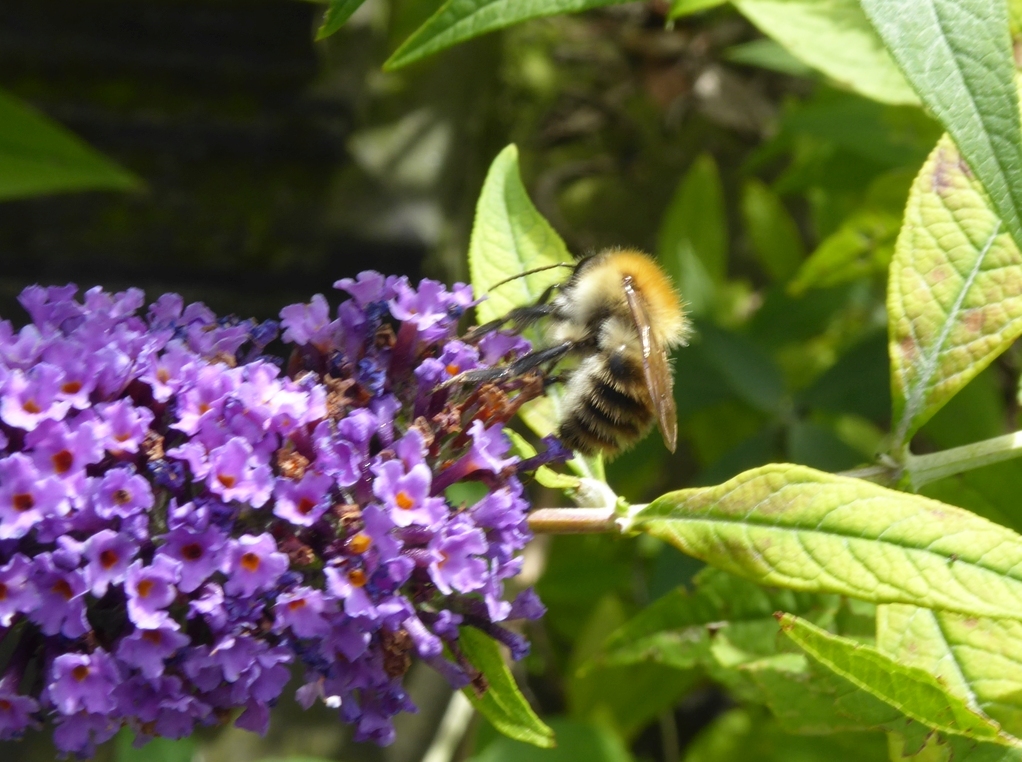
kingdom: Animalia
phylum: Arthropoda
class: Insecta
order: Hymenoptera
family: Apidae
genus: Bombus
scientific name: Bombus pascuorum
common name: Common carder bee
